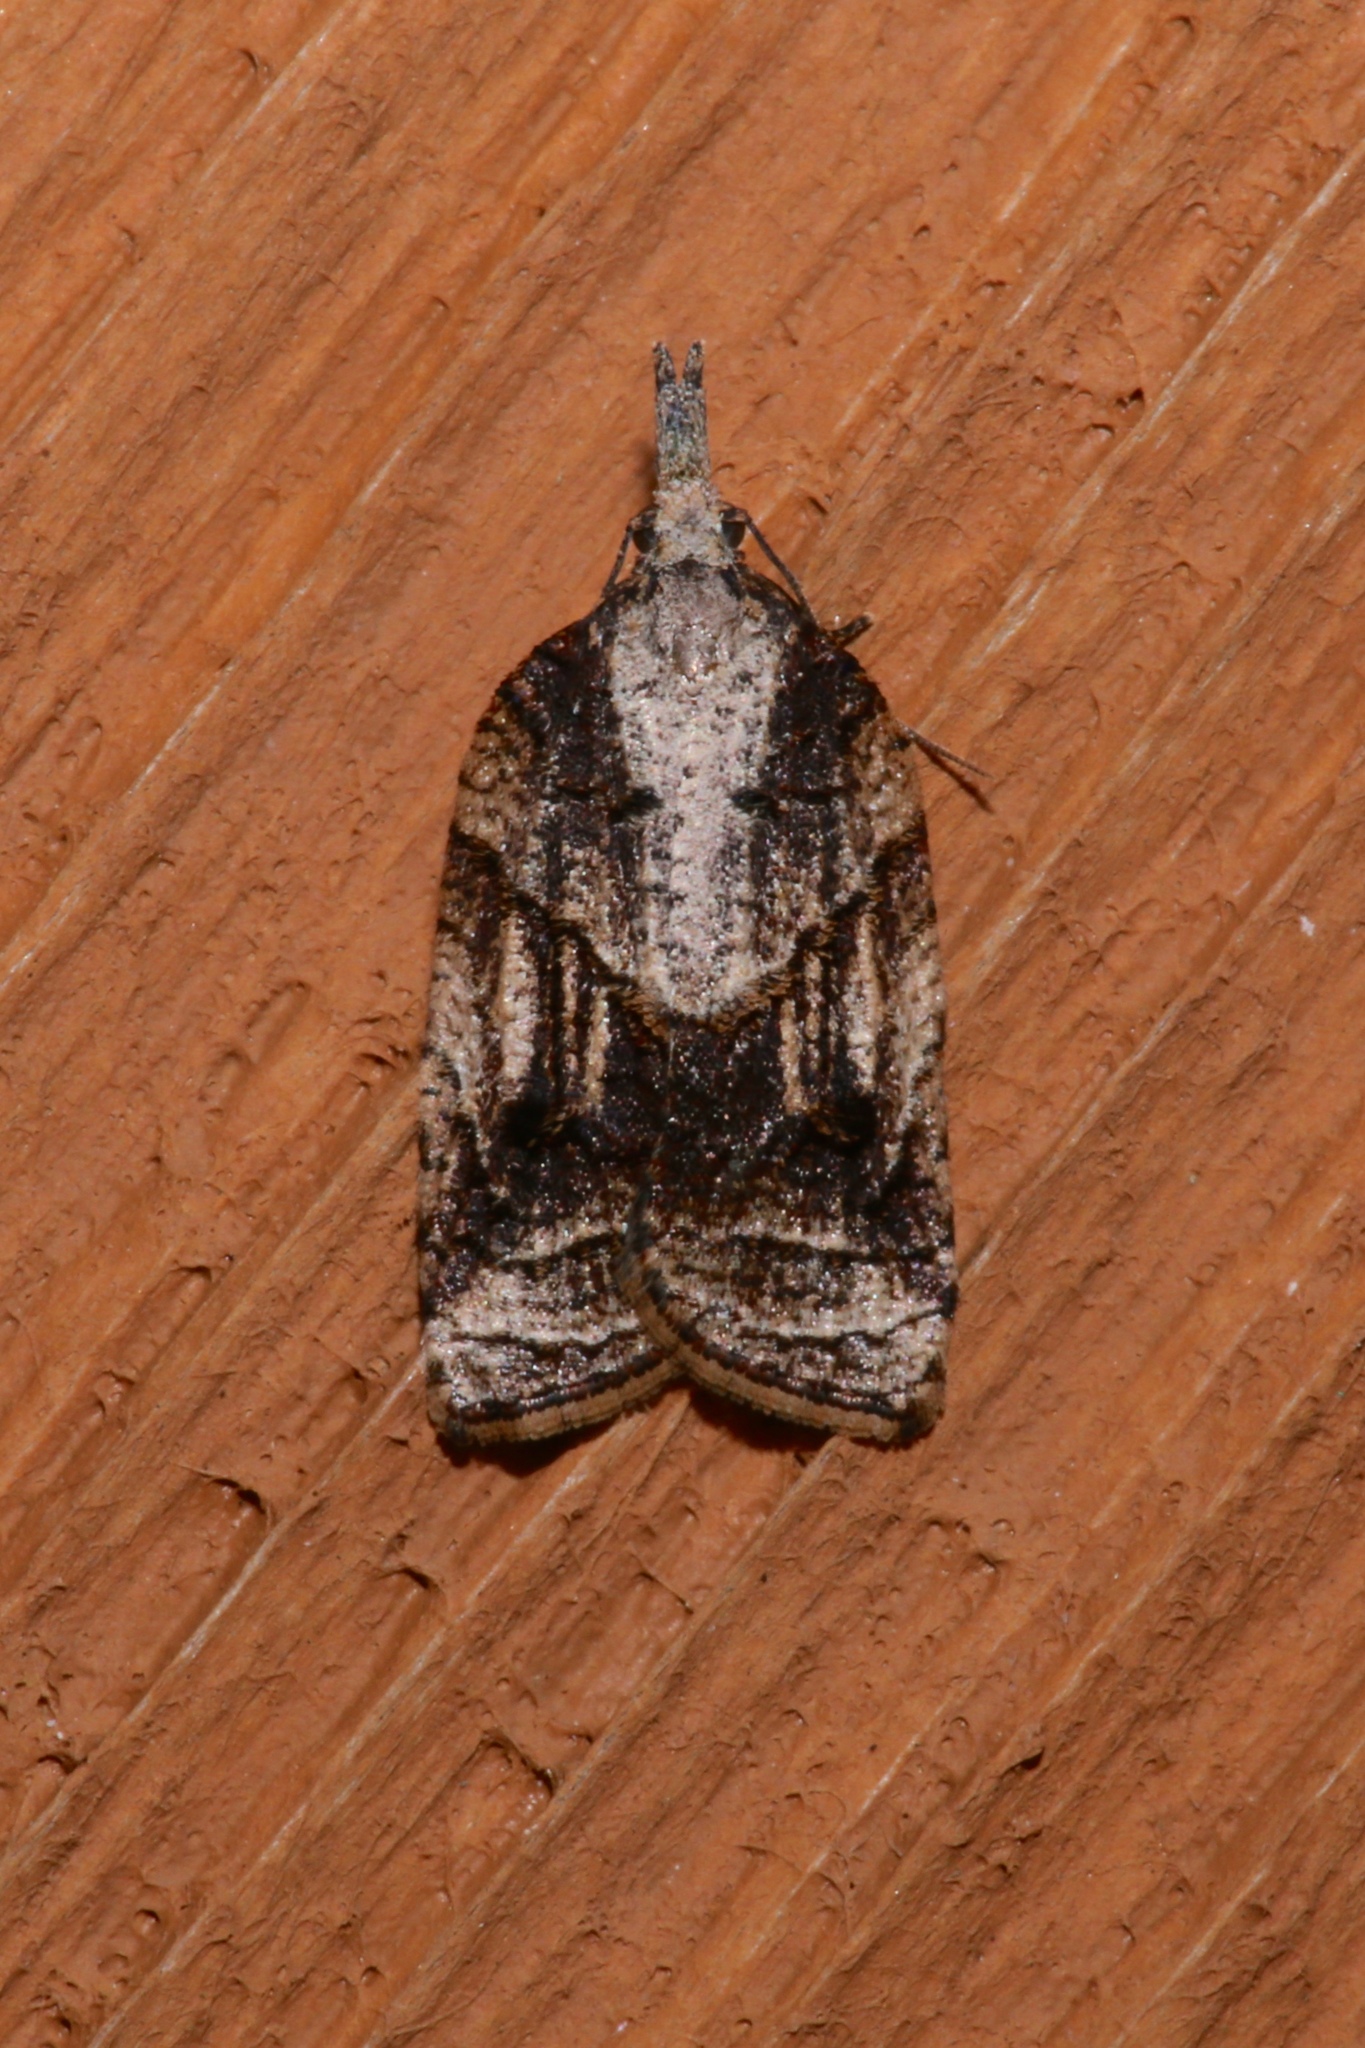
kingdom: Animalia
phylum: Arthropoda
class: Insecta
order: Lepidoptera
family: Tortricidae
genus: Platynota
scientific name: Platynota exasperatana
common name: Exasperating platynota moth
